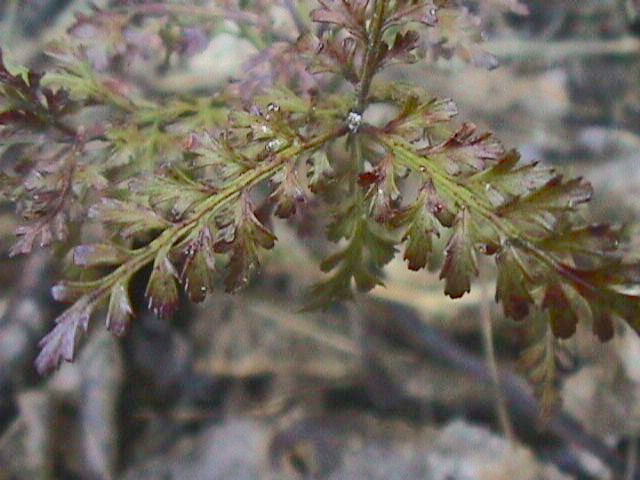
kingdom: Plantae
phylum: Tracheophyta
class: Pinopsida
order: Pinales
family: Phyllocladaceae
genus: Phyllocladus
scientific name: Phyllocladus trichomanoides
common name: Celery pine
